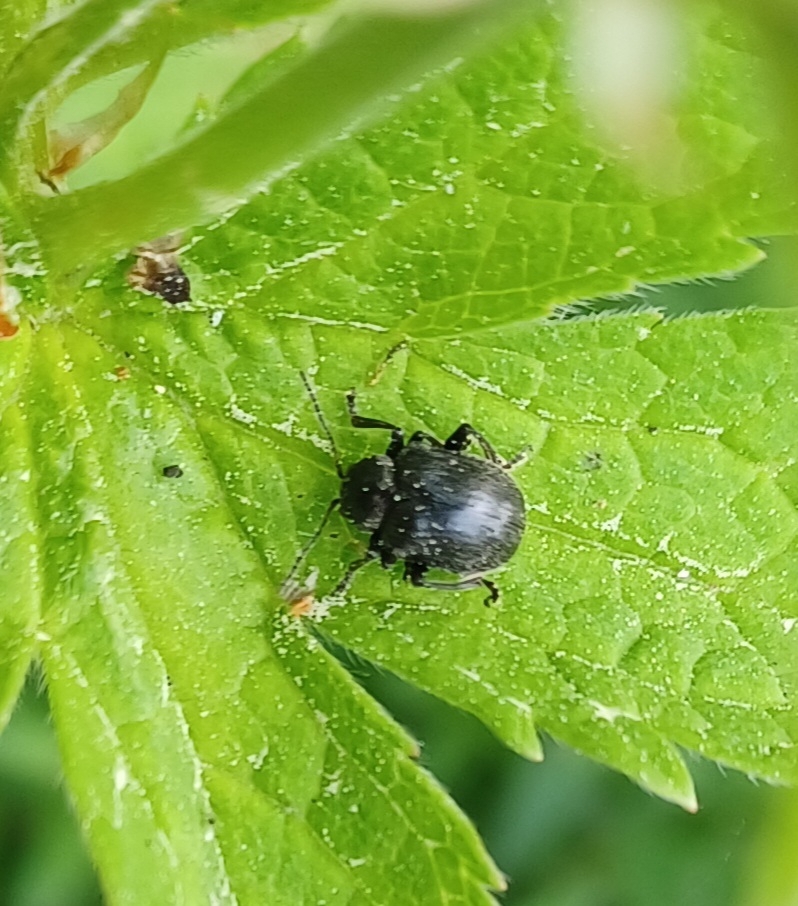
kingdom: Animalia
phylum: Arthropoda
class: Insecta
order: Coleoptera
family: Chrysomelidae
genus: Bromius
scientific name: Bromius obscurus
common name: Western grape rootworm
